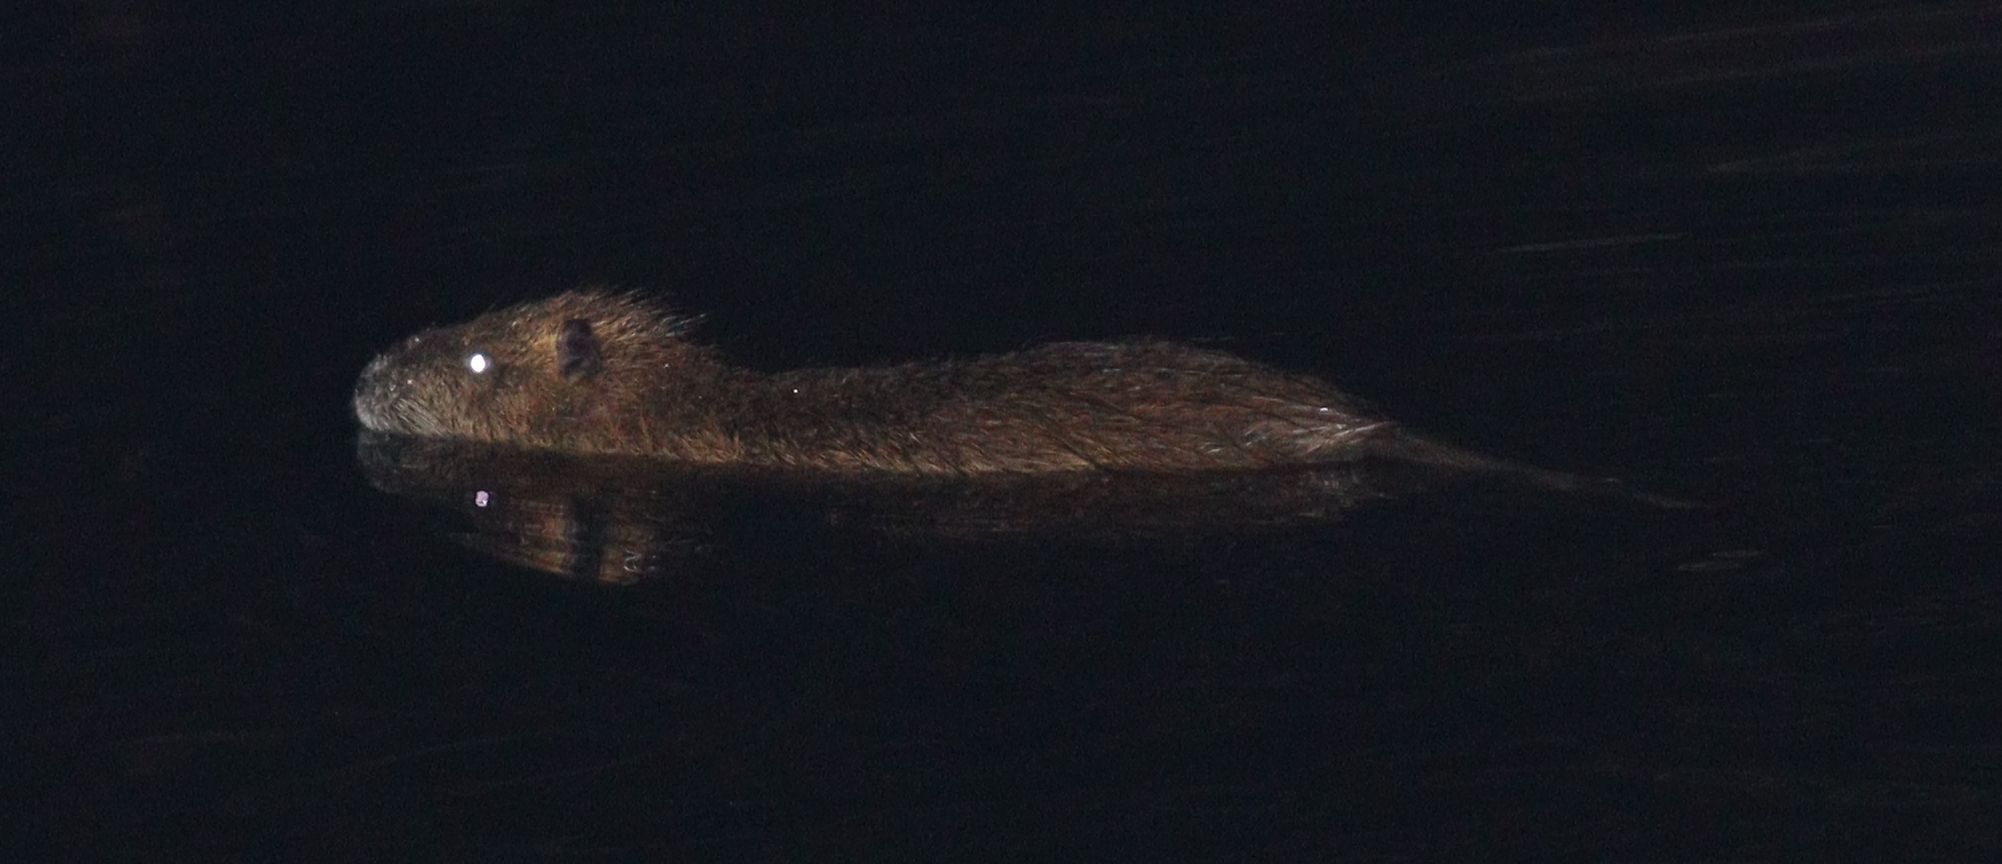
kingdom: Animalia
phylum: Chordata
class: Mammalia
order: Rodentia
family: Myocastoridae
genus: Myocastor
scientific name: Myocastor coypus
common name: Coypu
